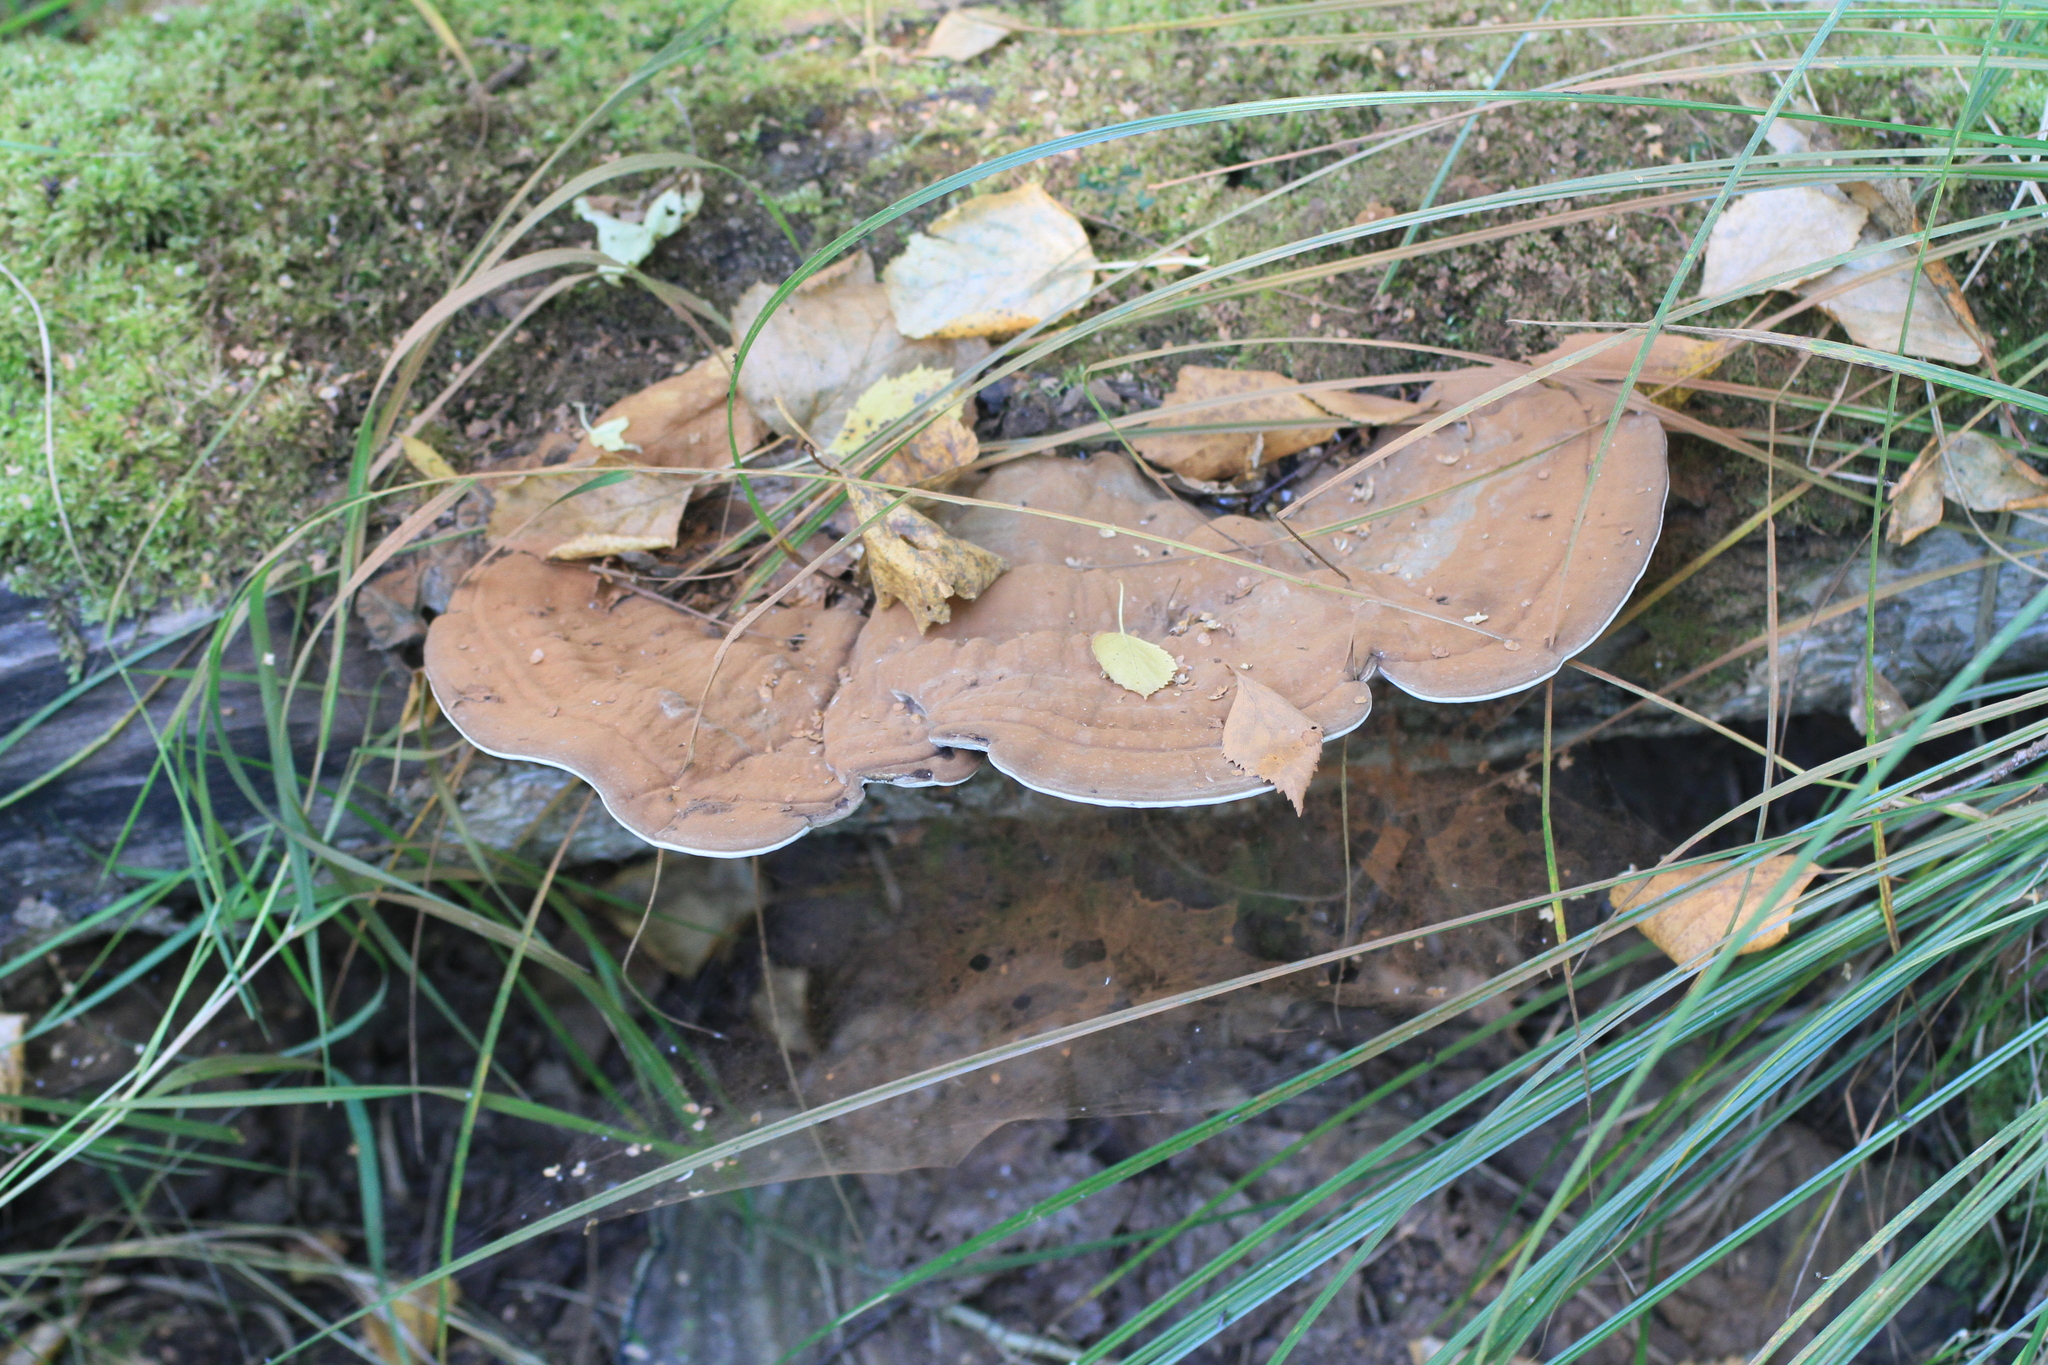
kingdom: Fungi
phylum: Basidiomycota
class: Agaricomycetes
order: Polyporales
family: Polyporaceae
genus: Ganoderma
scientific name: Ganoderma applanatum
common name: Artist's bracket
